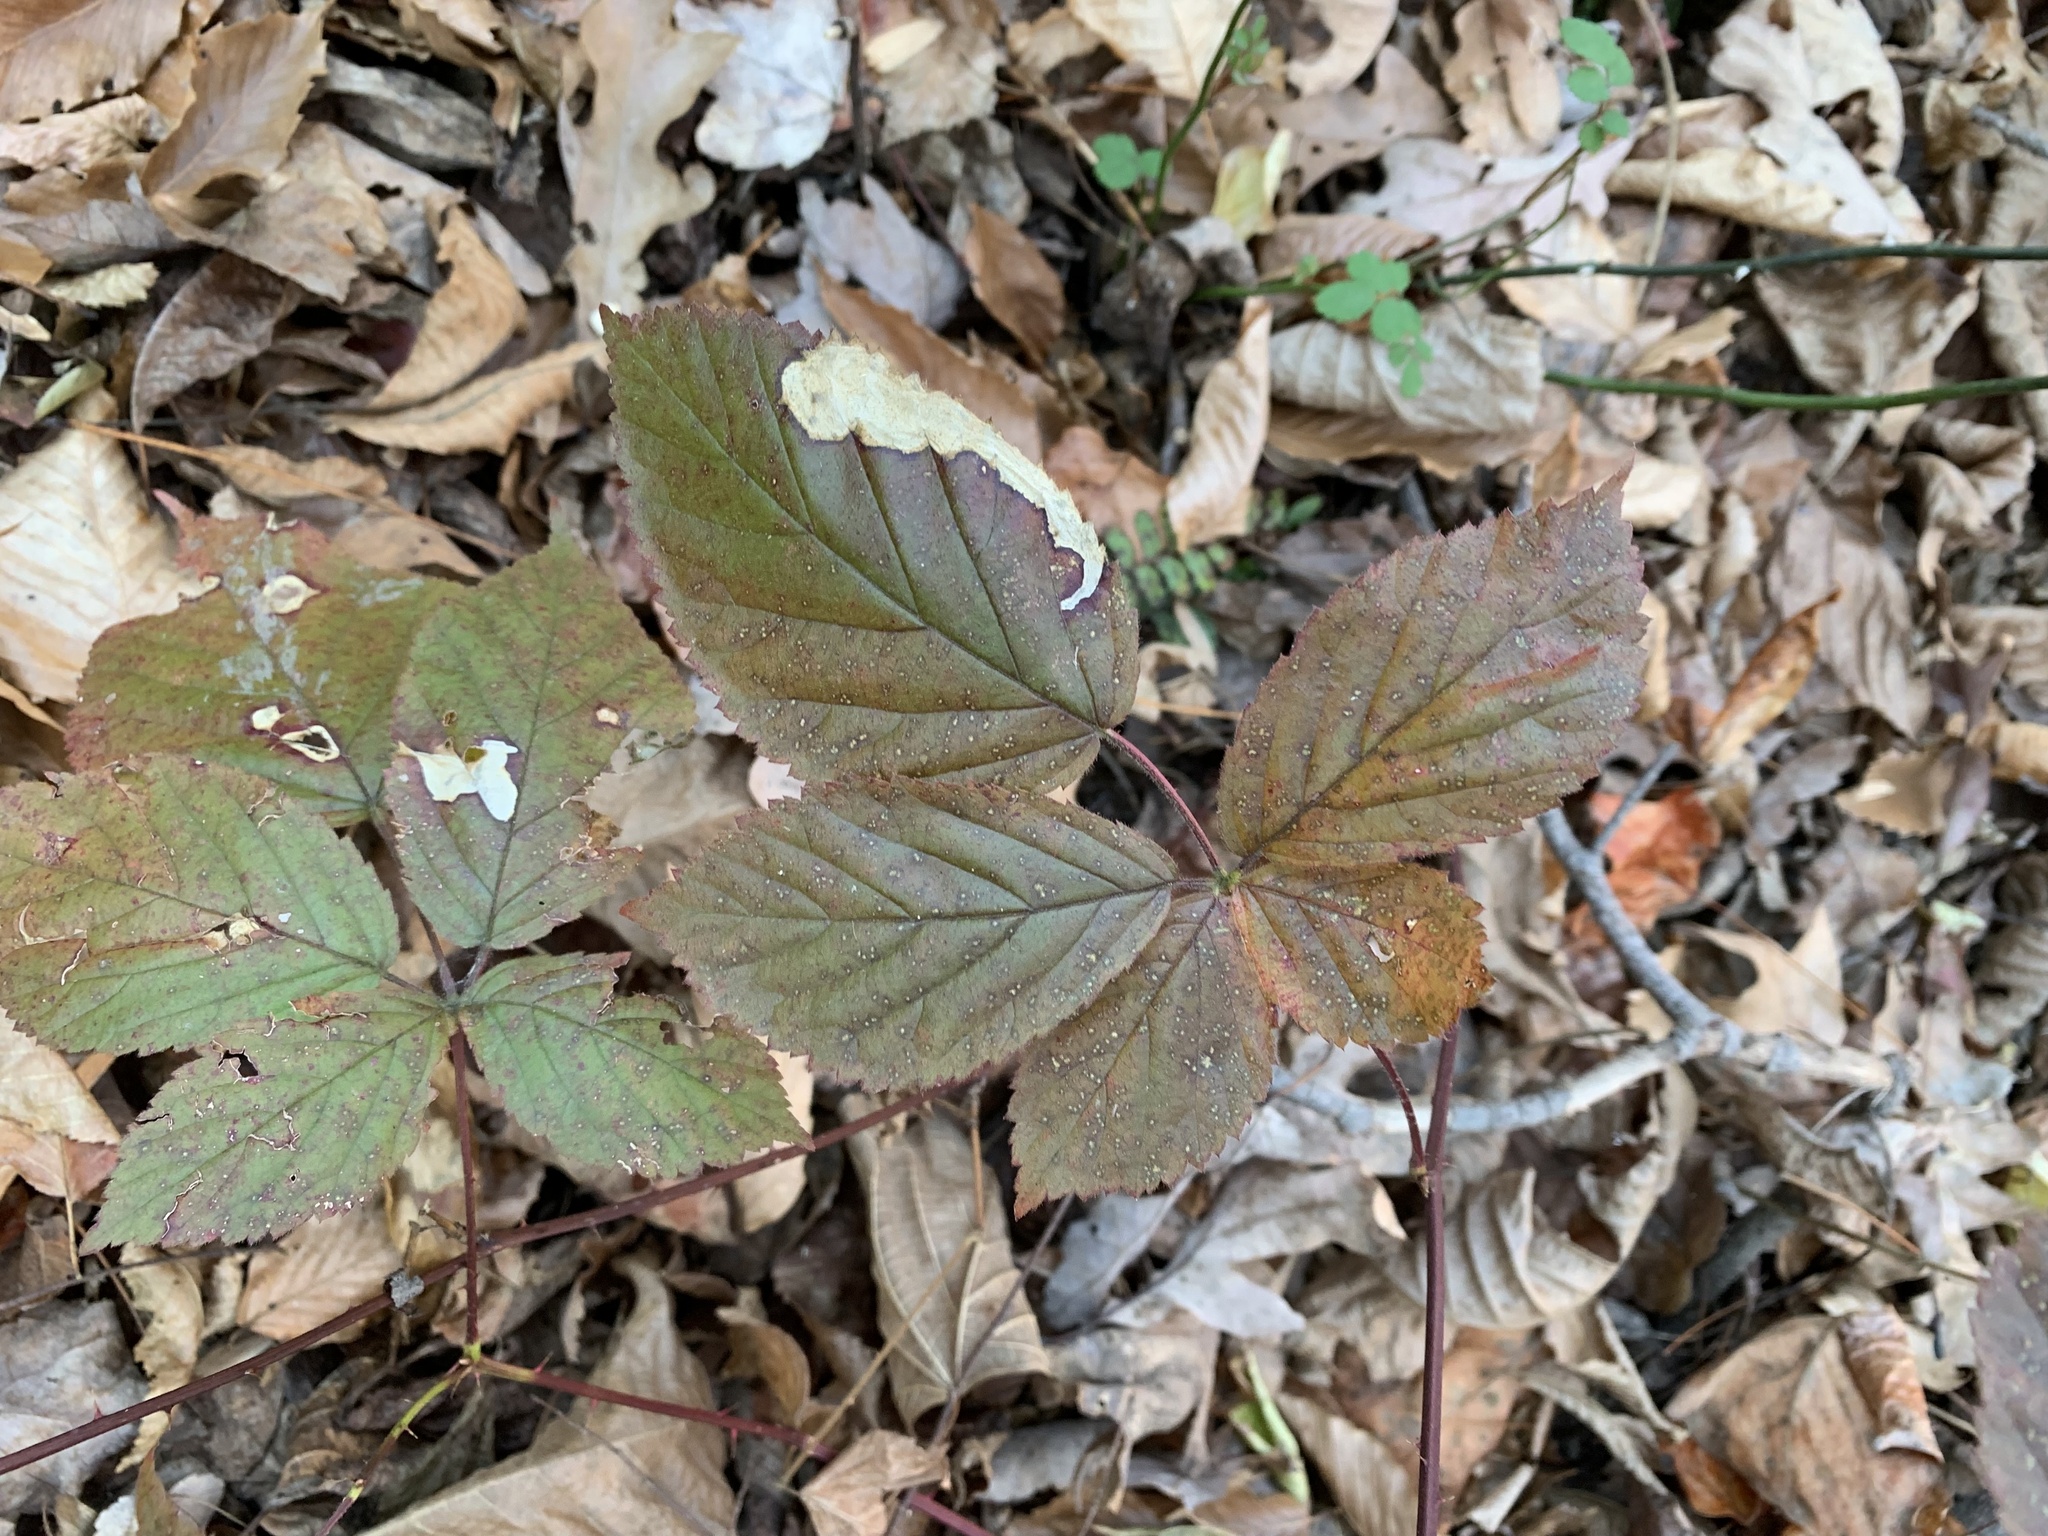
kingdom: Animalia
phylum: Arthropoda
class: Insecta
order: Hymenoptera
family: Tenthredinidae
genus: Metallus
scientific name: Metallus rohweri
